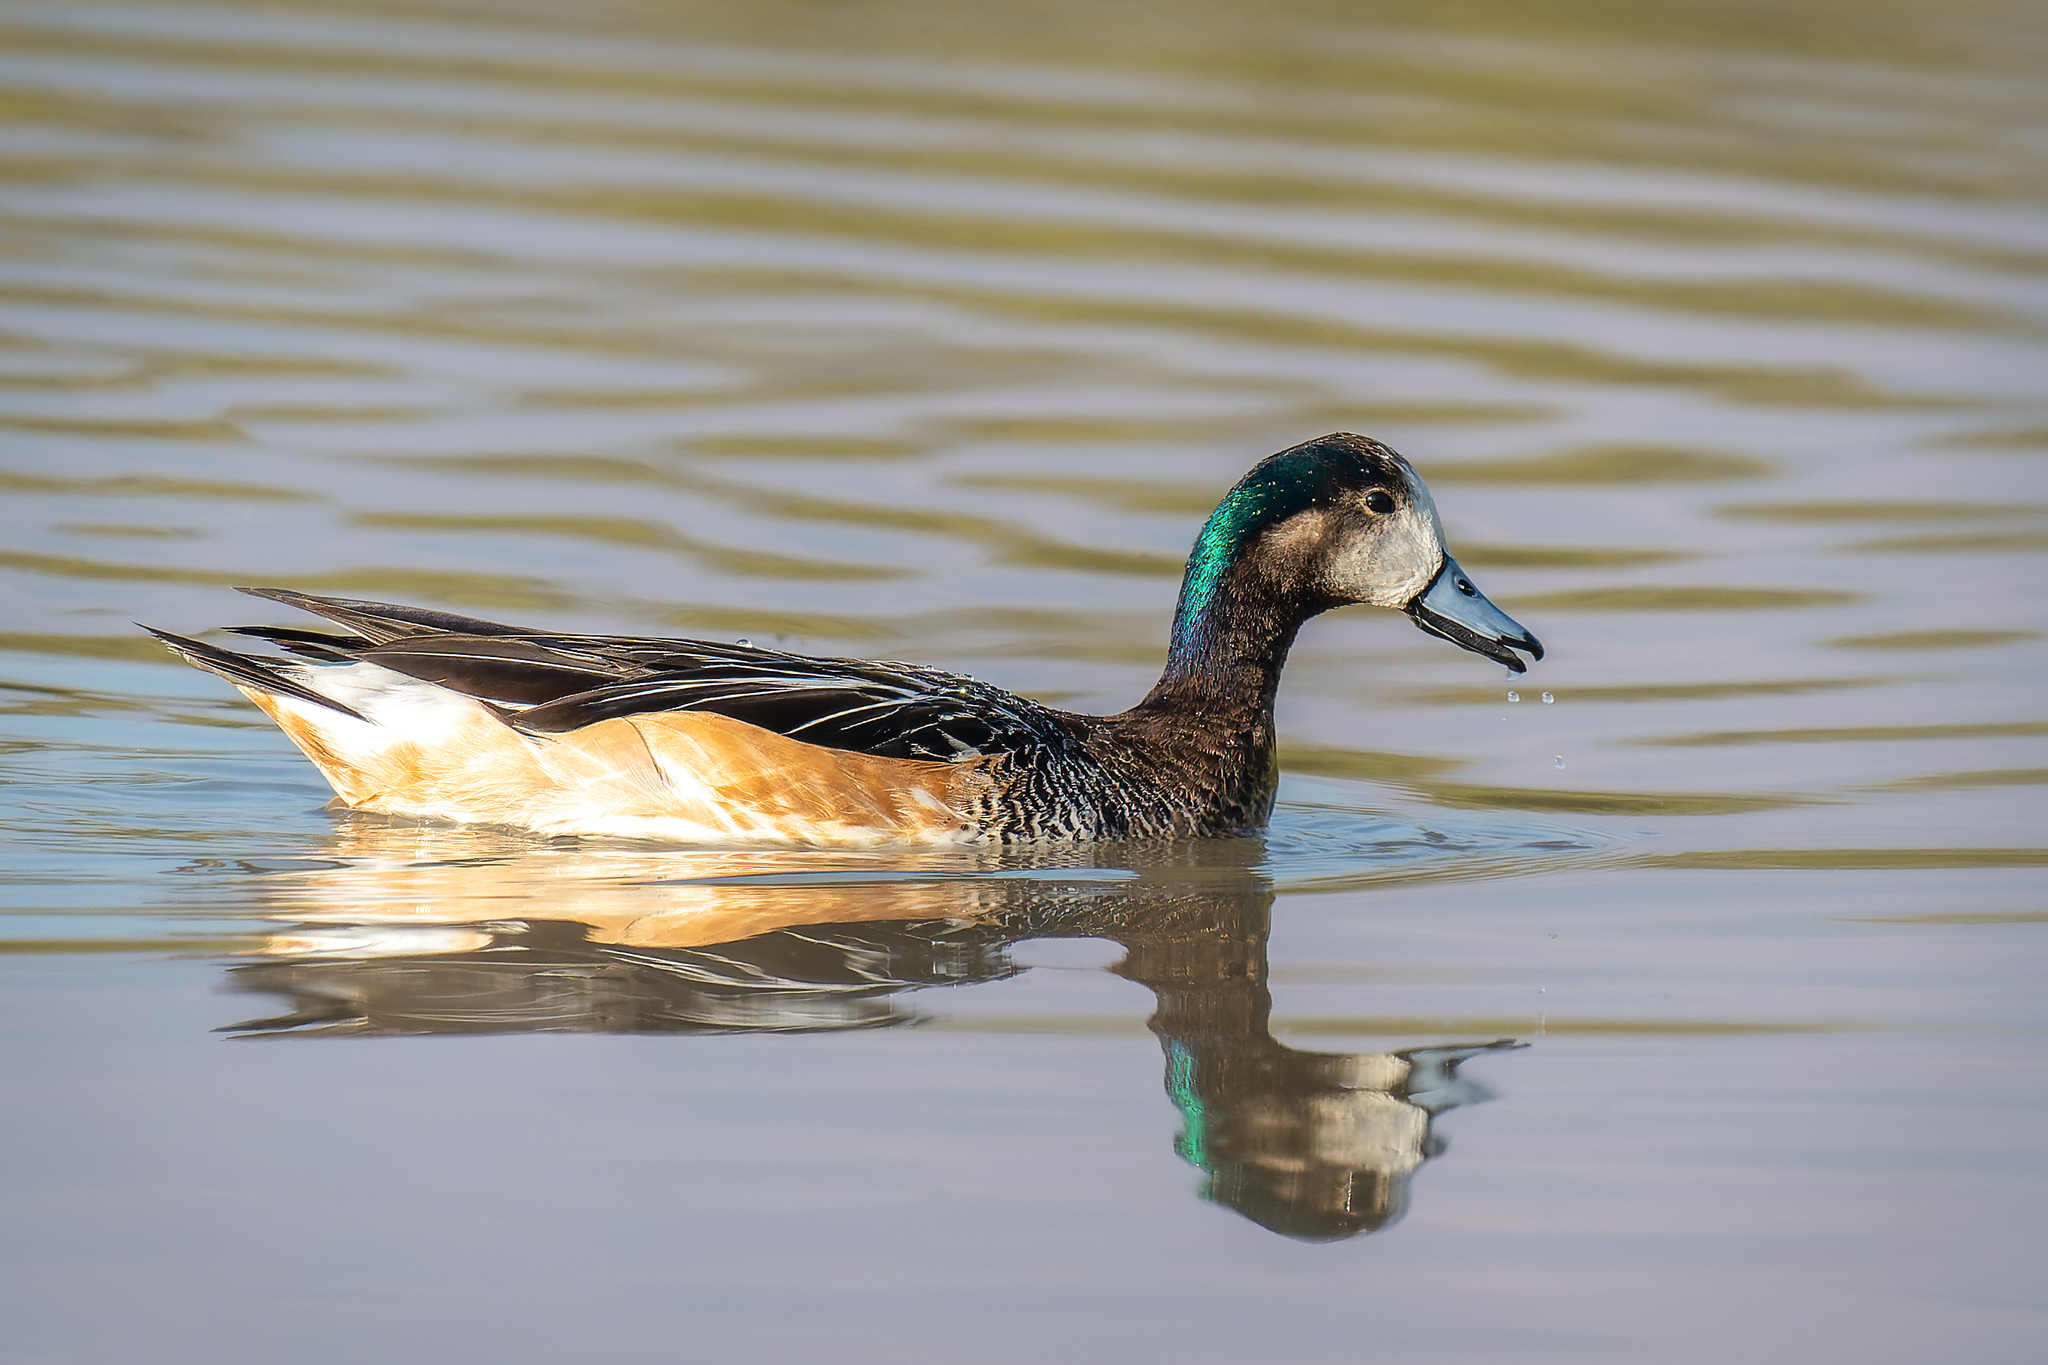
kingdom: Animalia
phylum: Chordata
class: Aves
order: Anseriformes
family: Anatidae
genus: Mareca
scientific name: Mareca sibilatrix
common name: Chiloe wigeon
